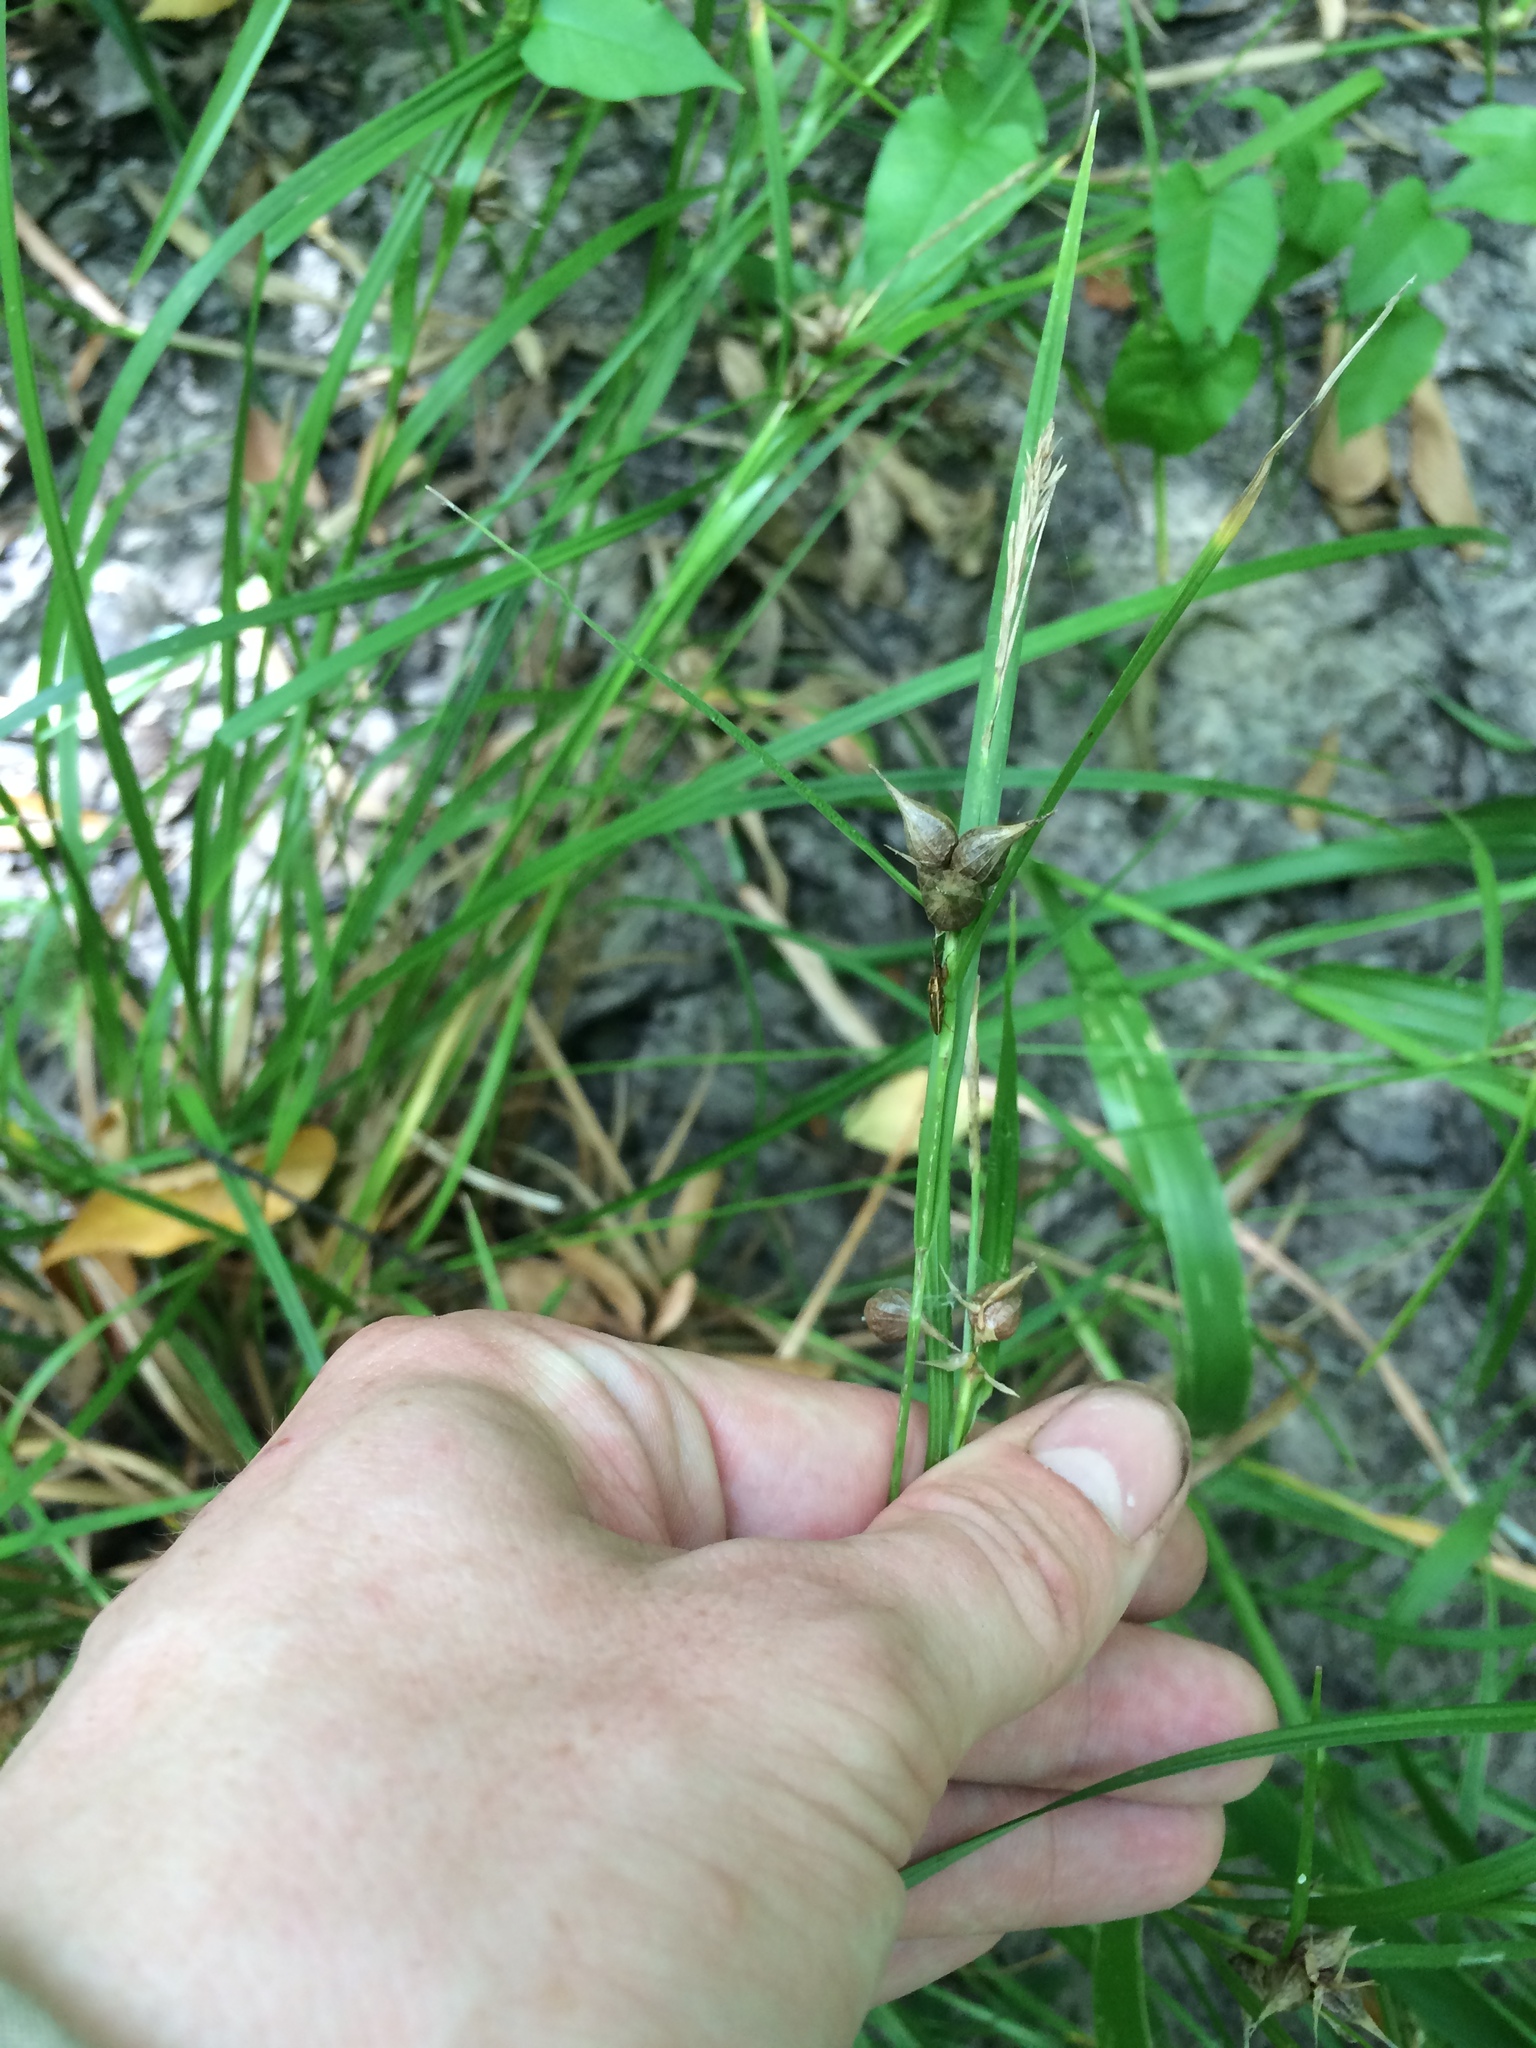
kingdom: Plantae
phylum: Tracheophyta
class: Liliopsida
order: Poales
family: Cyperaceae
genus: Carex
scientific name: Carex intumescens
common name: Greater bladder sedge
